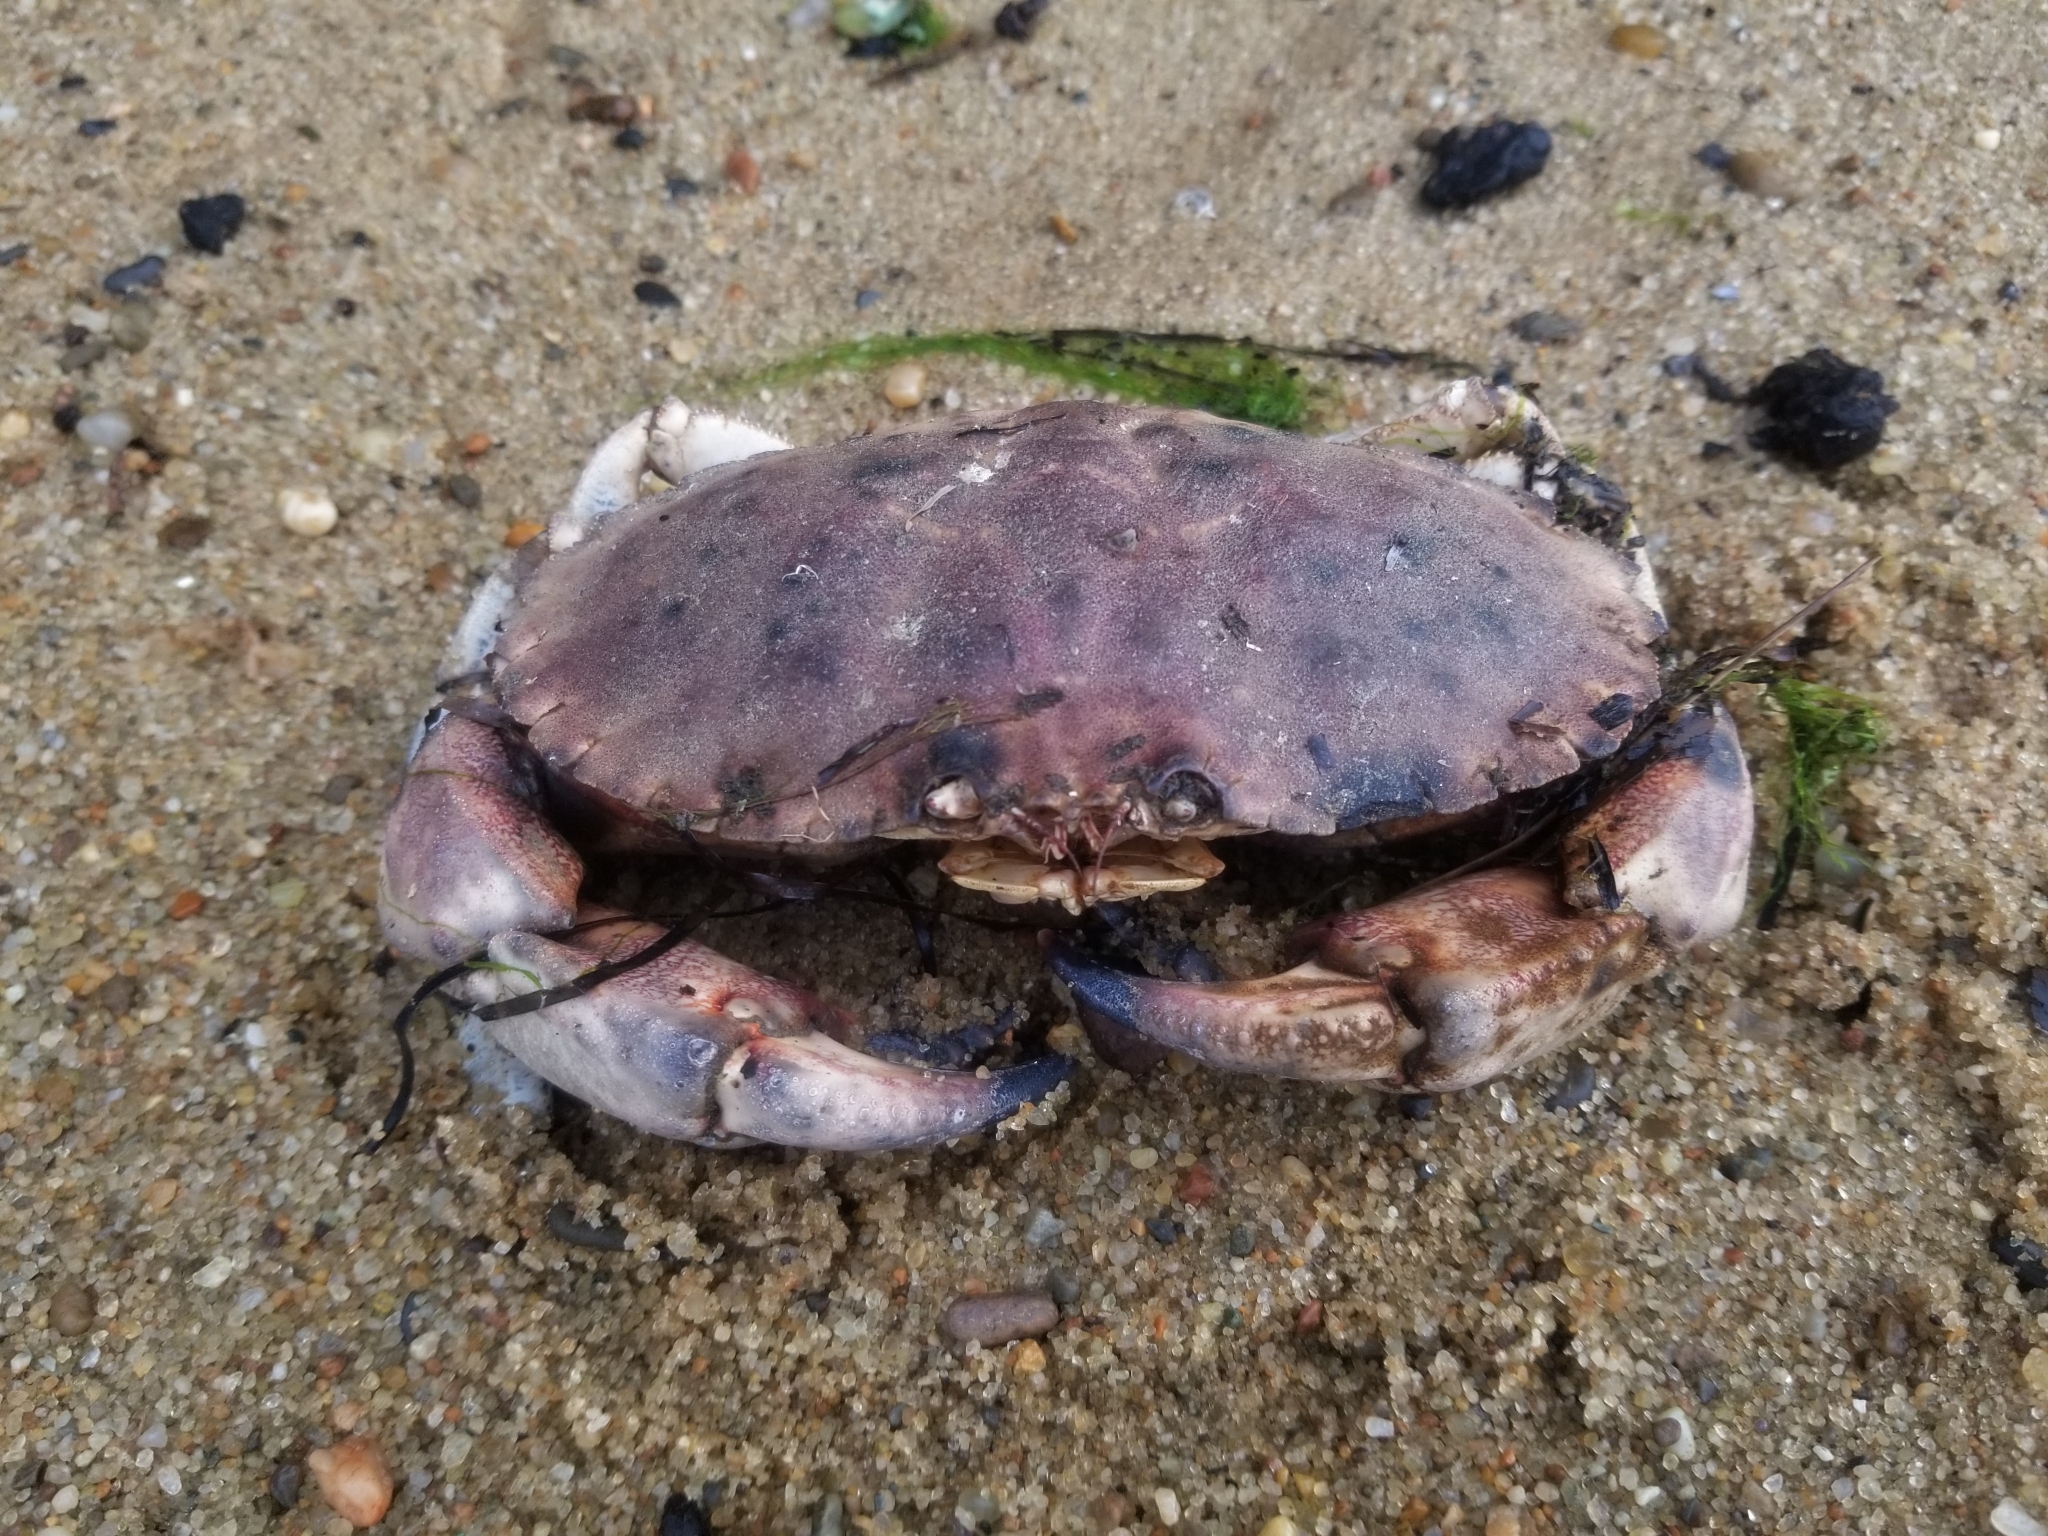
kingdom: Animalia
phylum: Arthropoda
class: Malacostraca
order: Decapoda
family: Cancridae
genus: Cancer
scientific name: Cancer borealis
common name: Jonah crab
